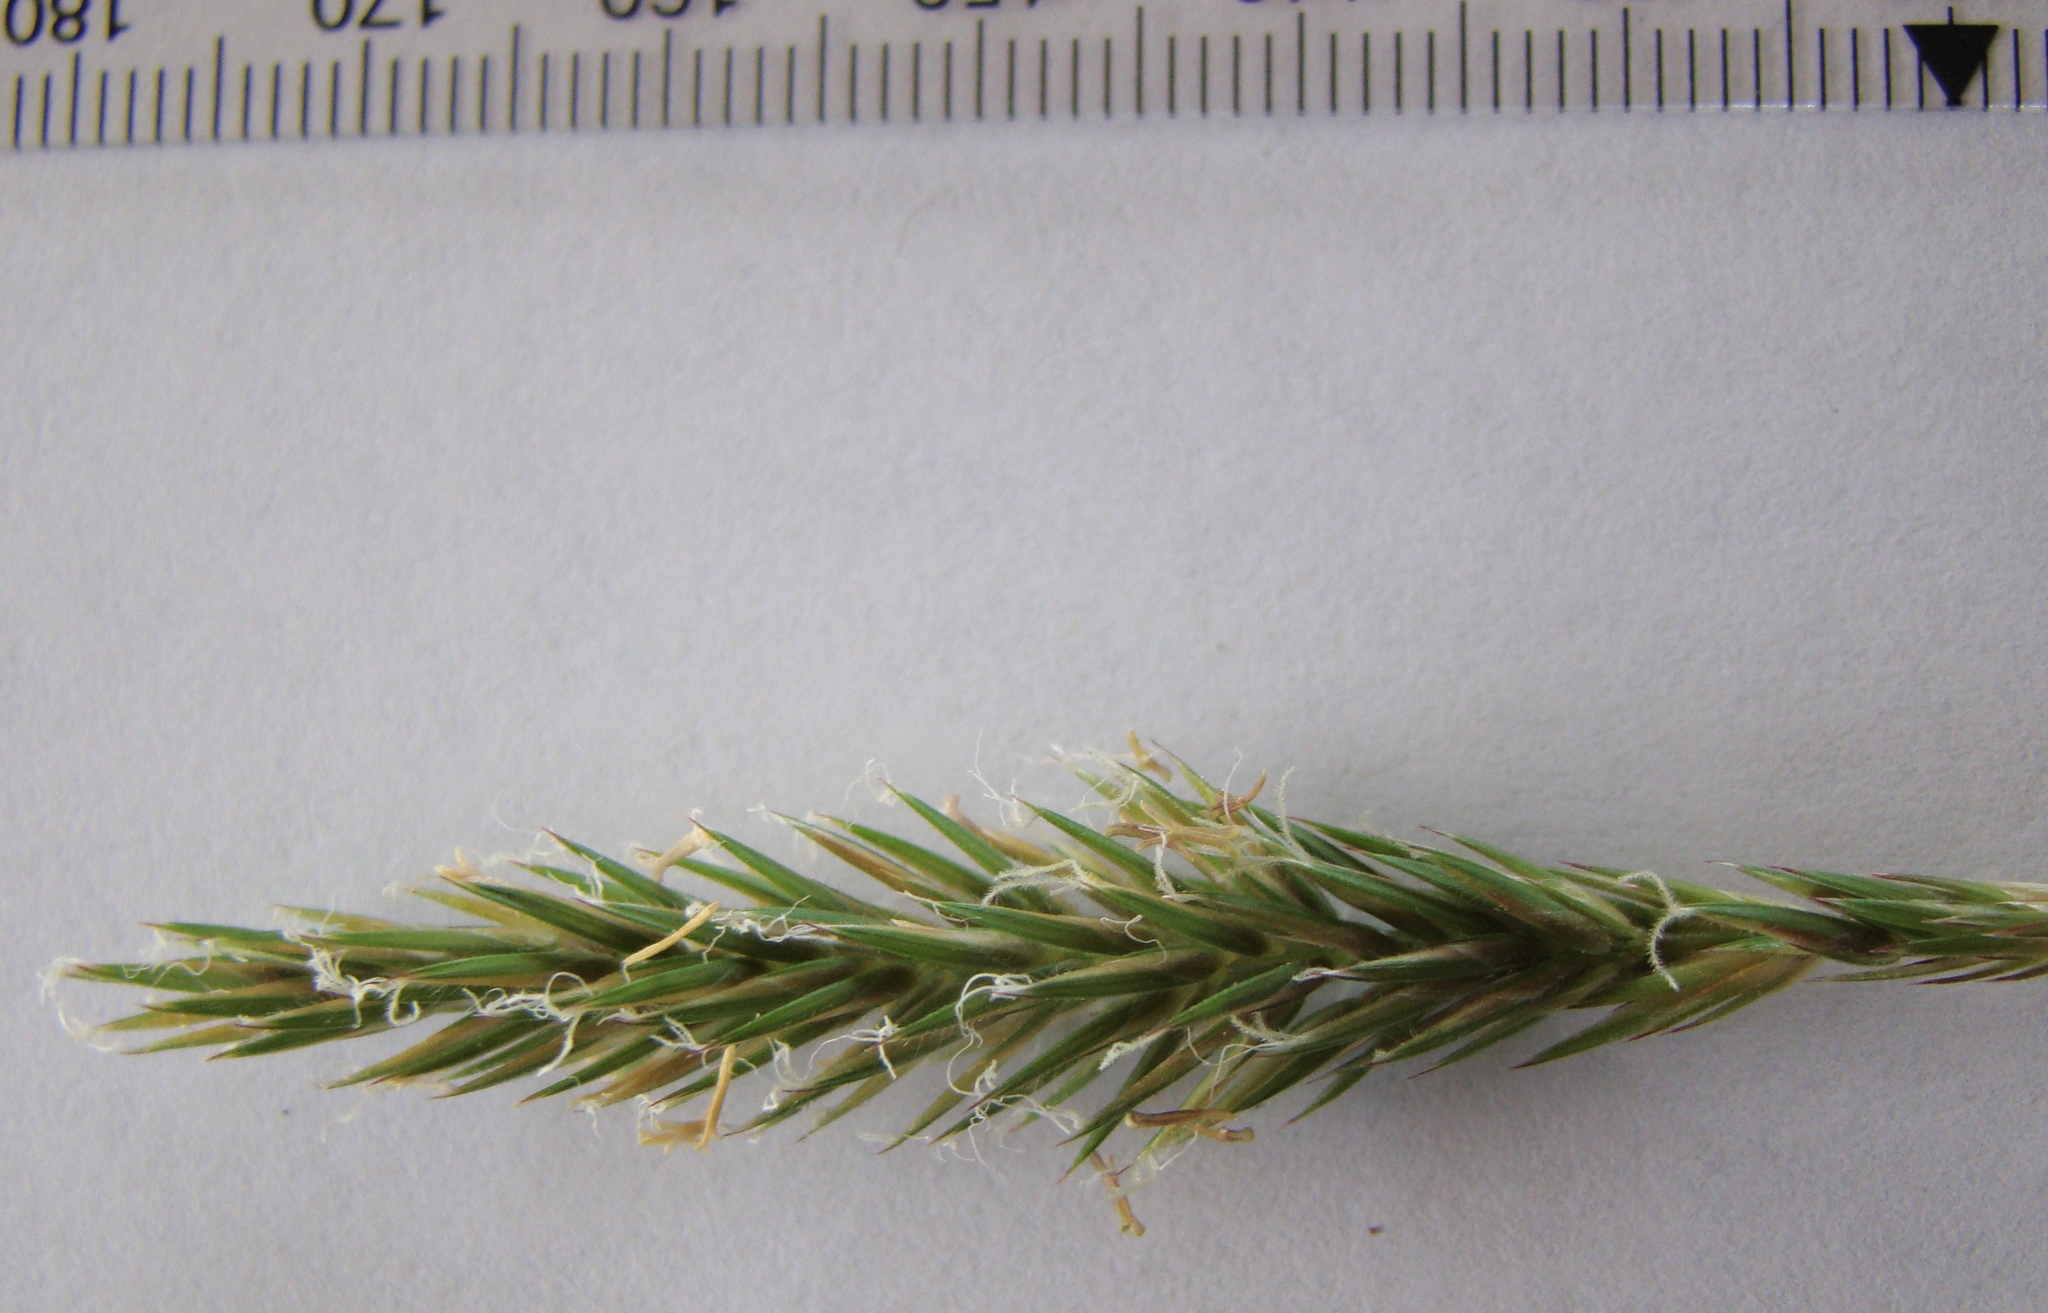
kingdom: Plantae
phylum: Tracheophyta
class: Liliopsida
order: Poales
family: Poaceae
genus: Anthoxanthum
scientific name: Anthoxanthum odoratum
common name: Sweet vernalgrass
